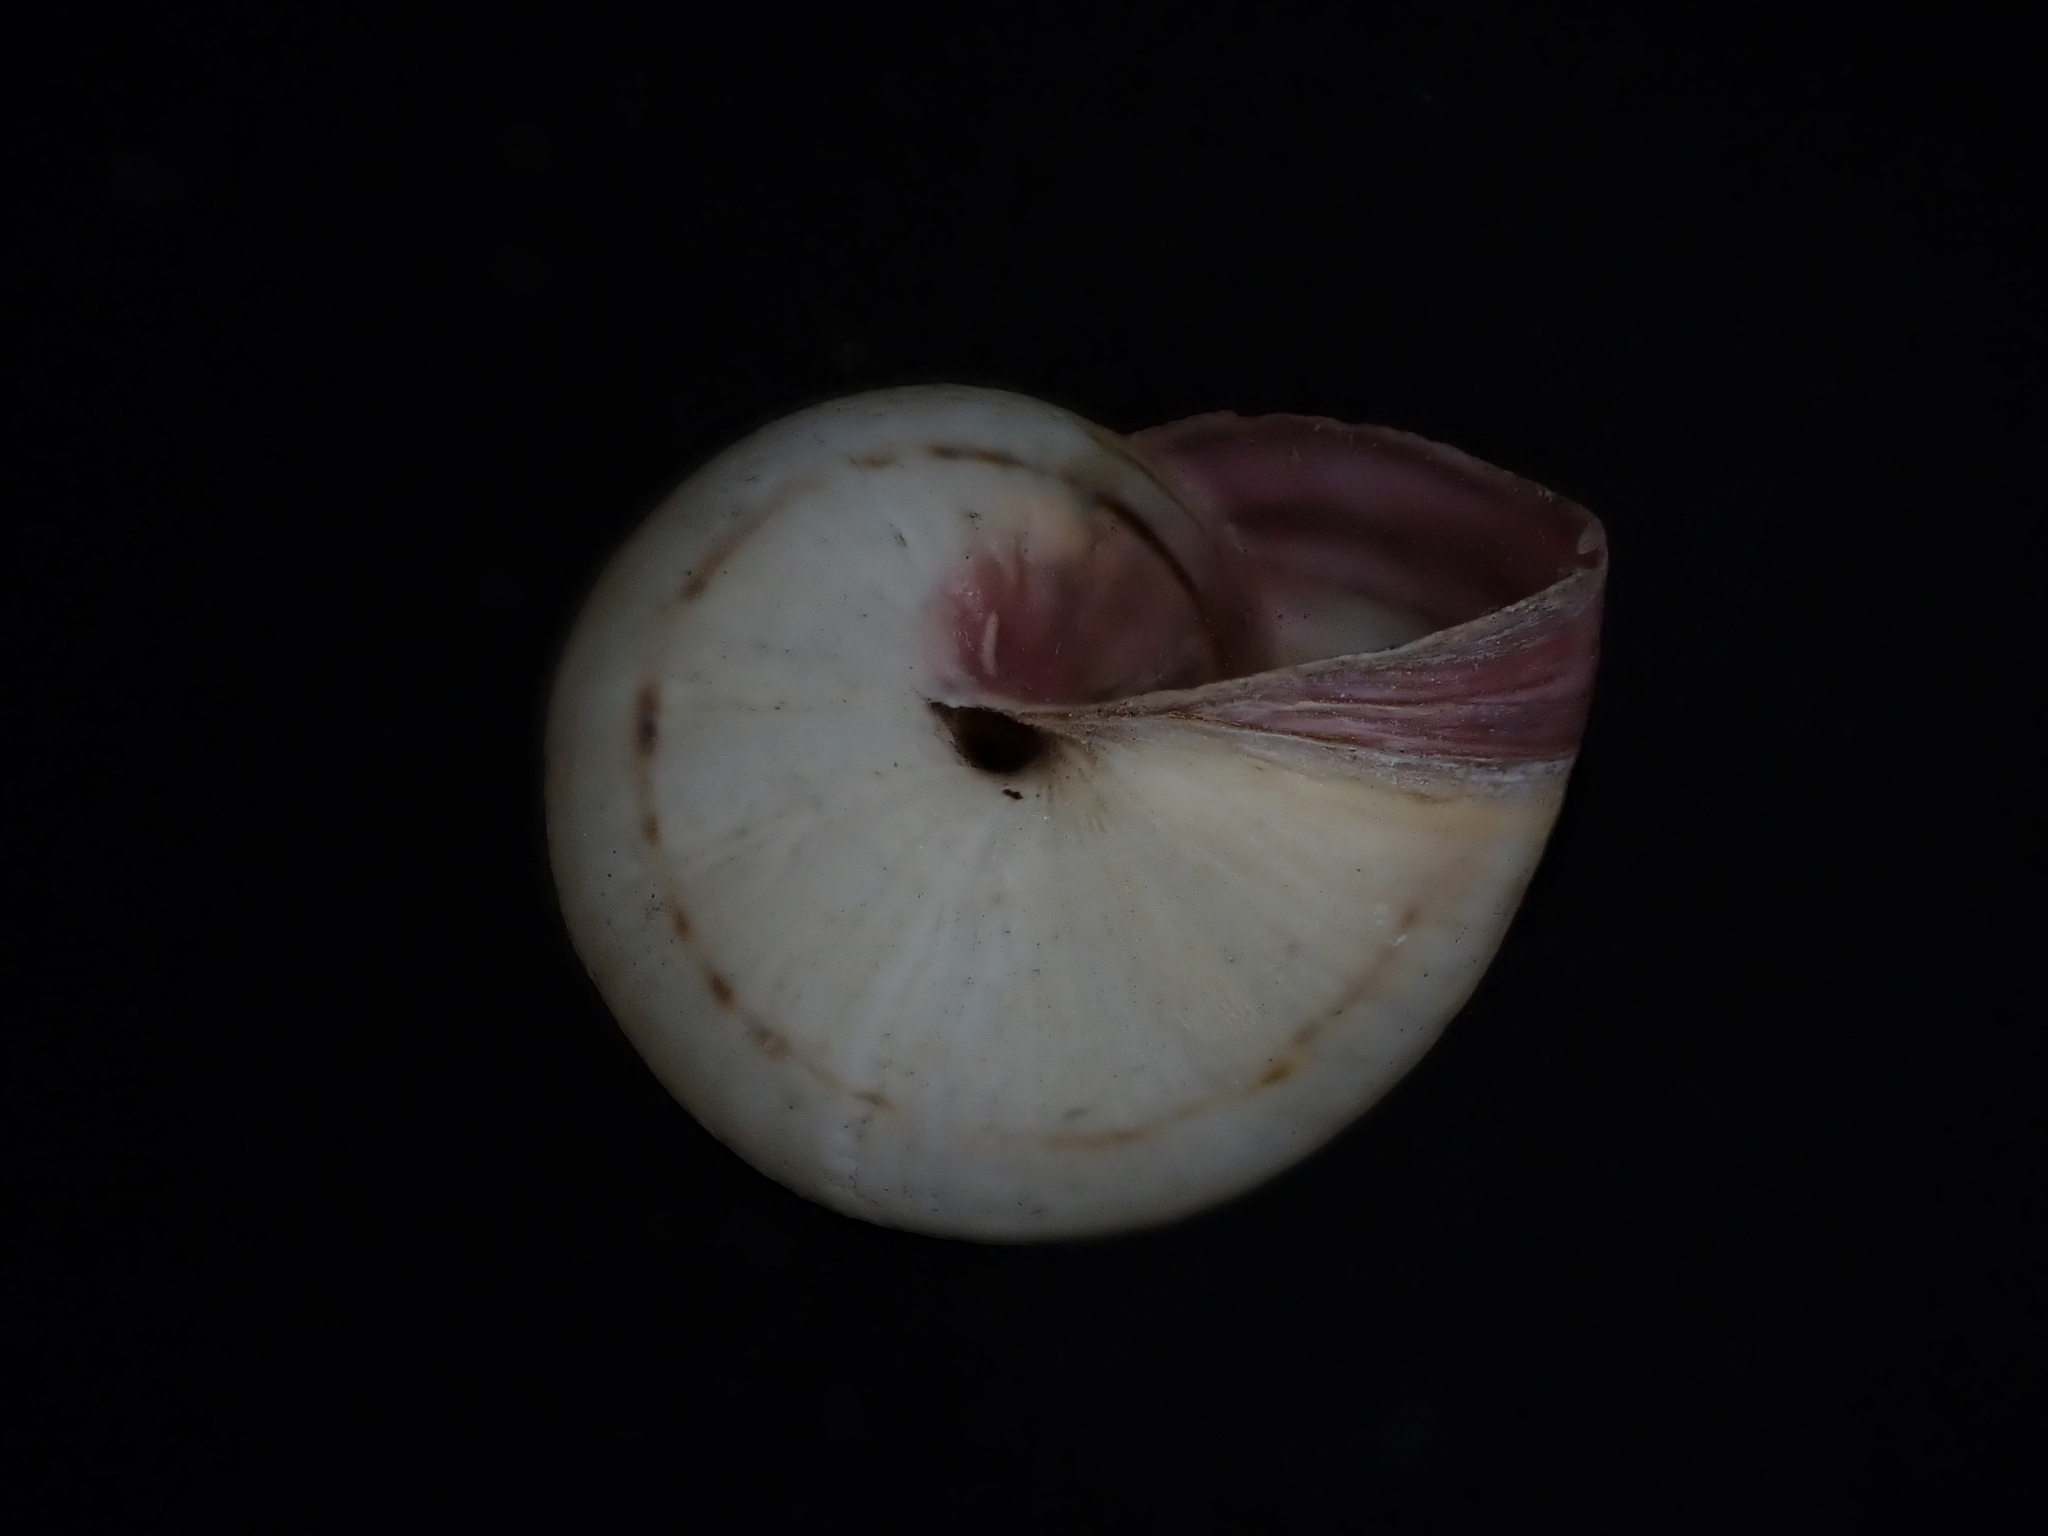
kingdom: Animalia
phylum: Mollusca
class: Gastropoda
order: Stylommatophora
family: Helicidae
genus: Theba
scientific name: Theba pisana
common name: White snail
